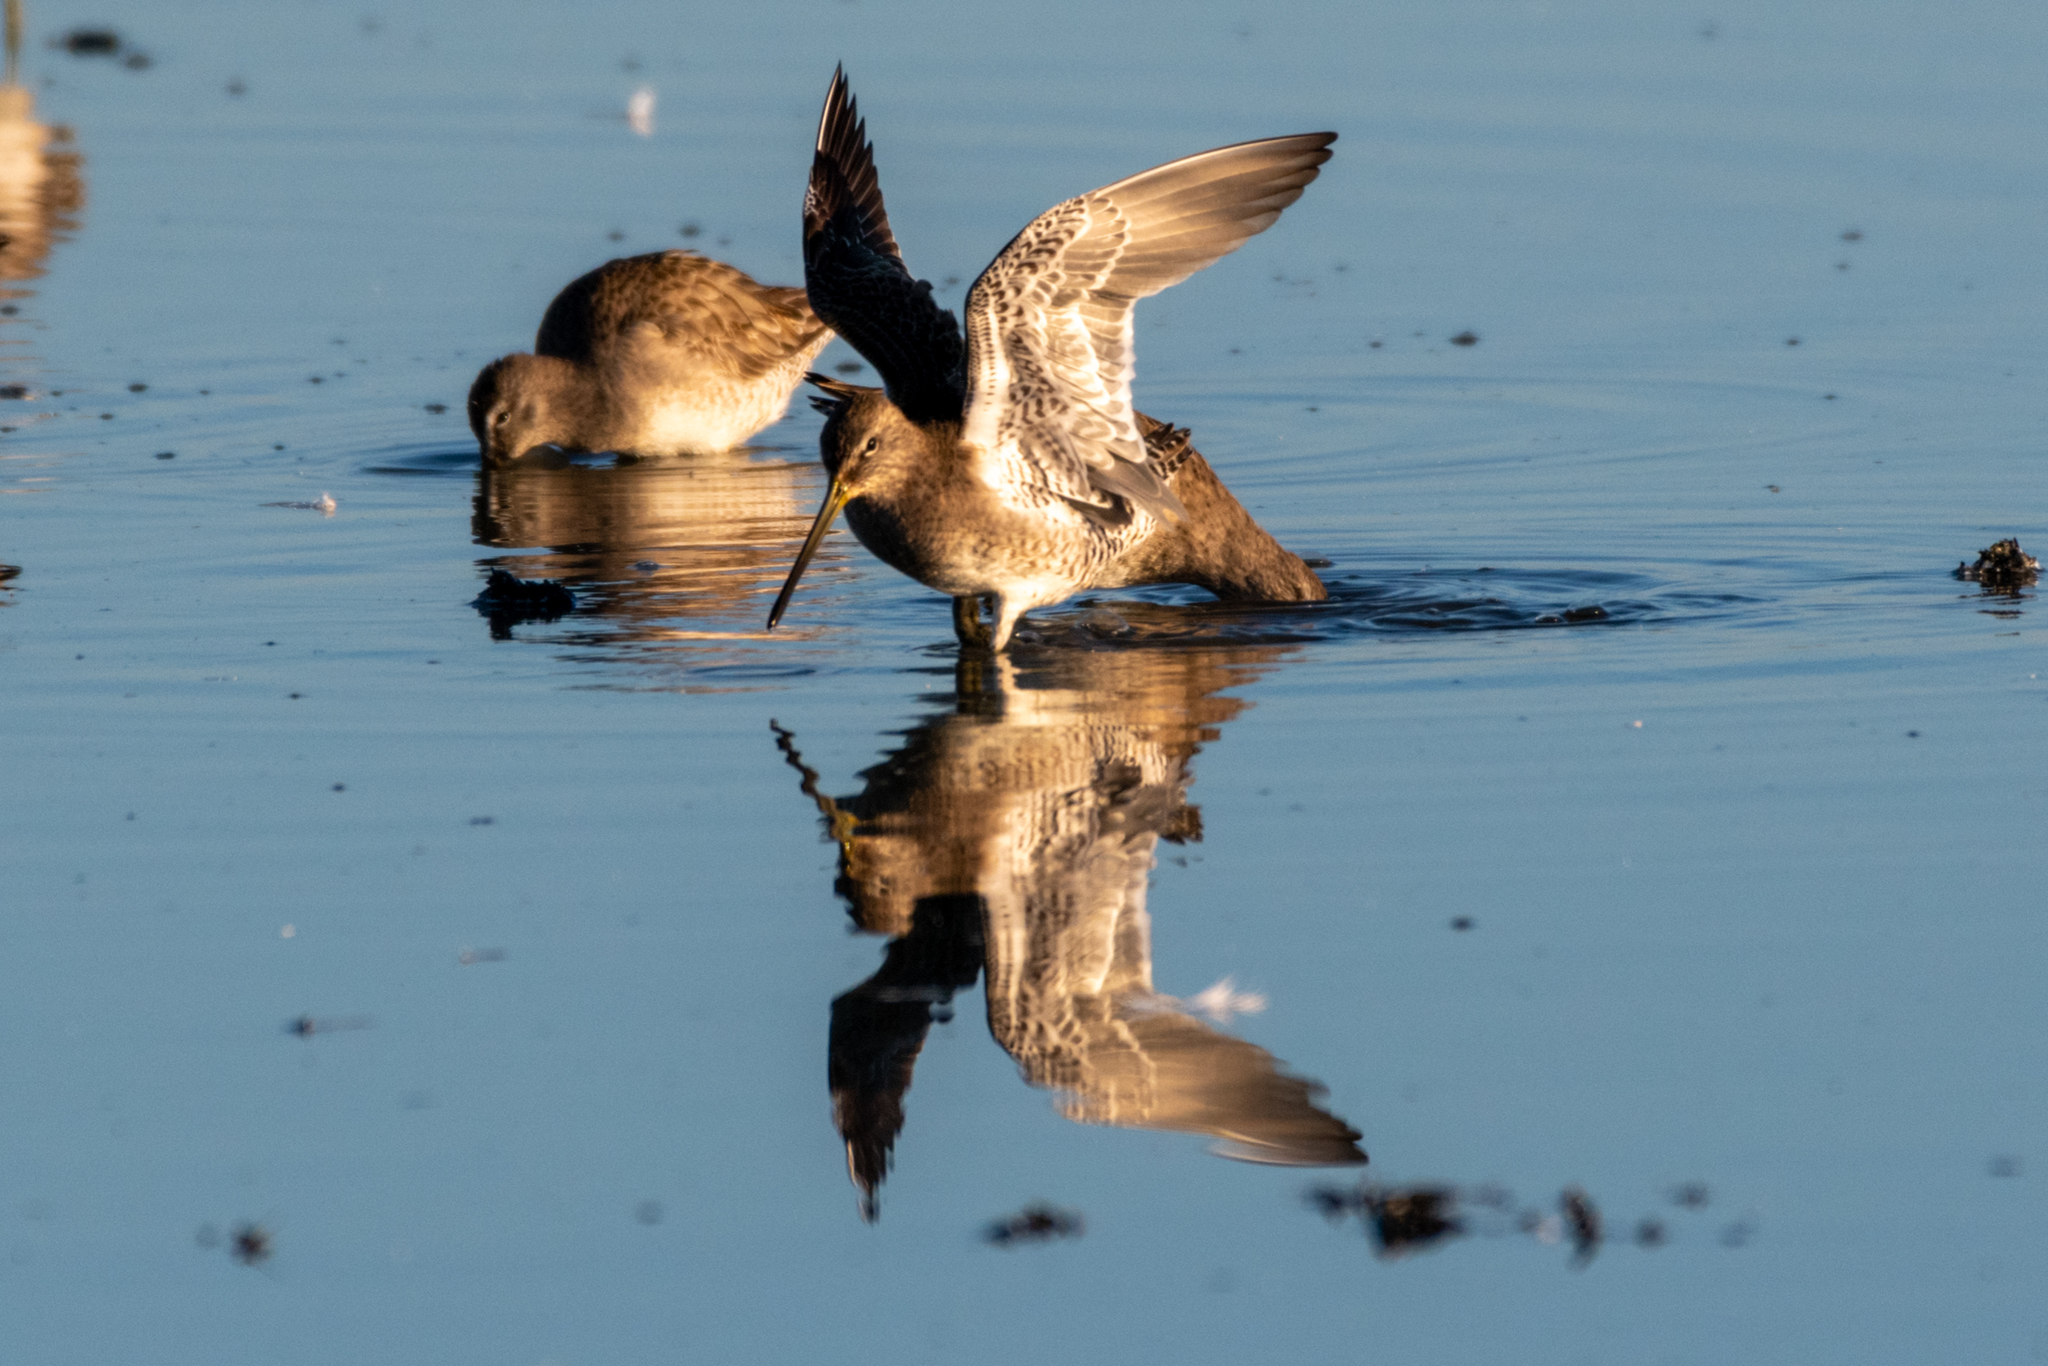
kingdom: Animalia
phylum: Chordata
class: Aves
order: Charadriiformes
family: Scolopacidae
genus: Limnodromus
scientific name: Limnodromus scolopaceus
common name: Long-billed dowitcher
